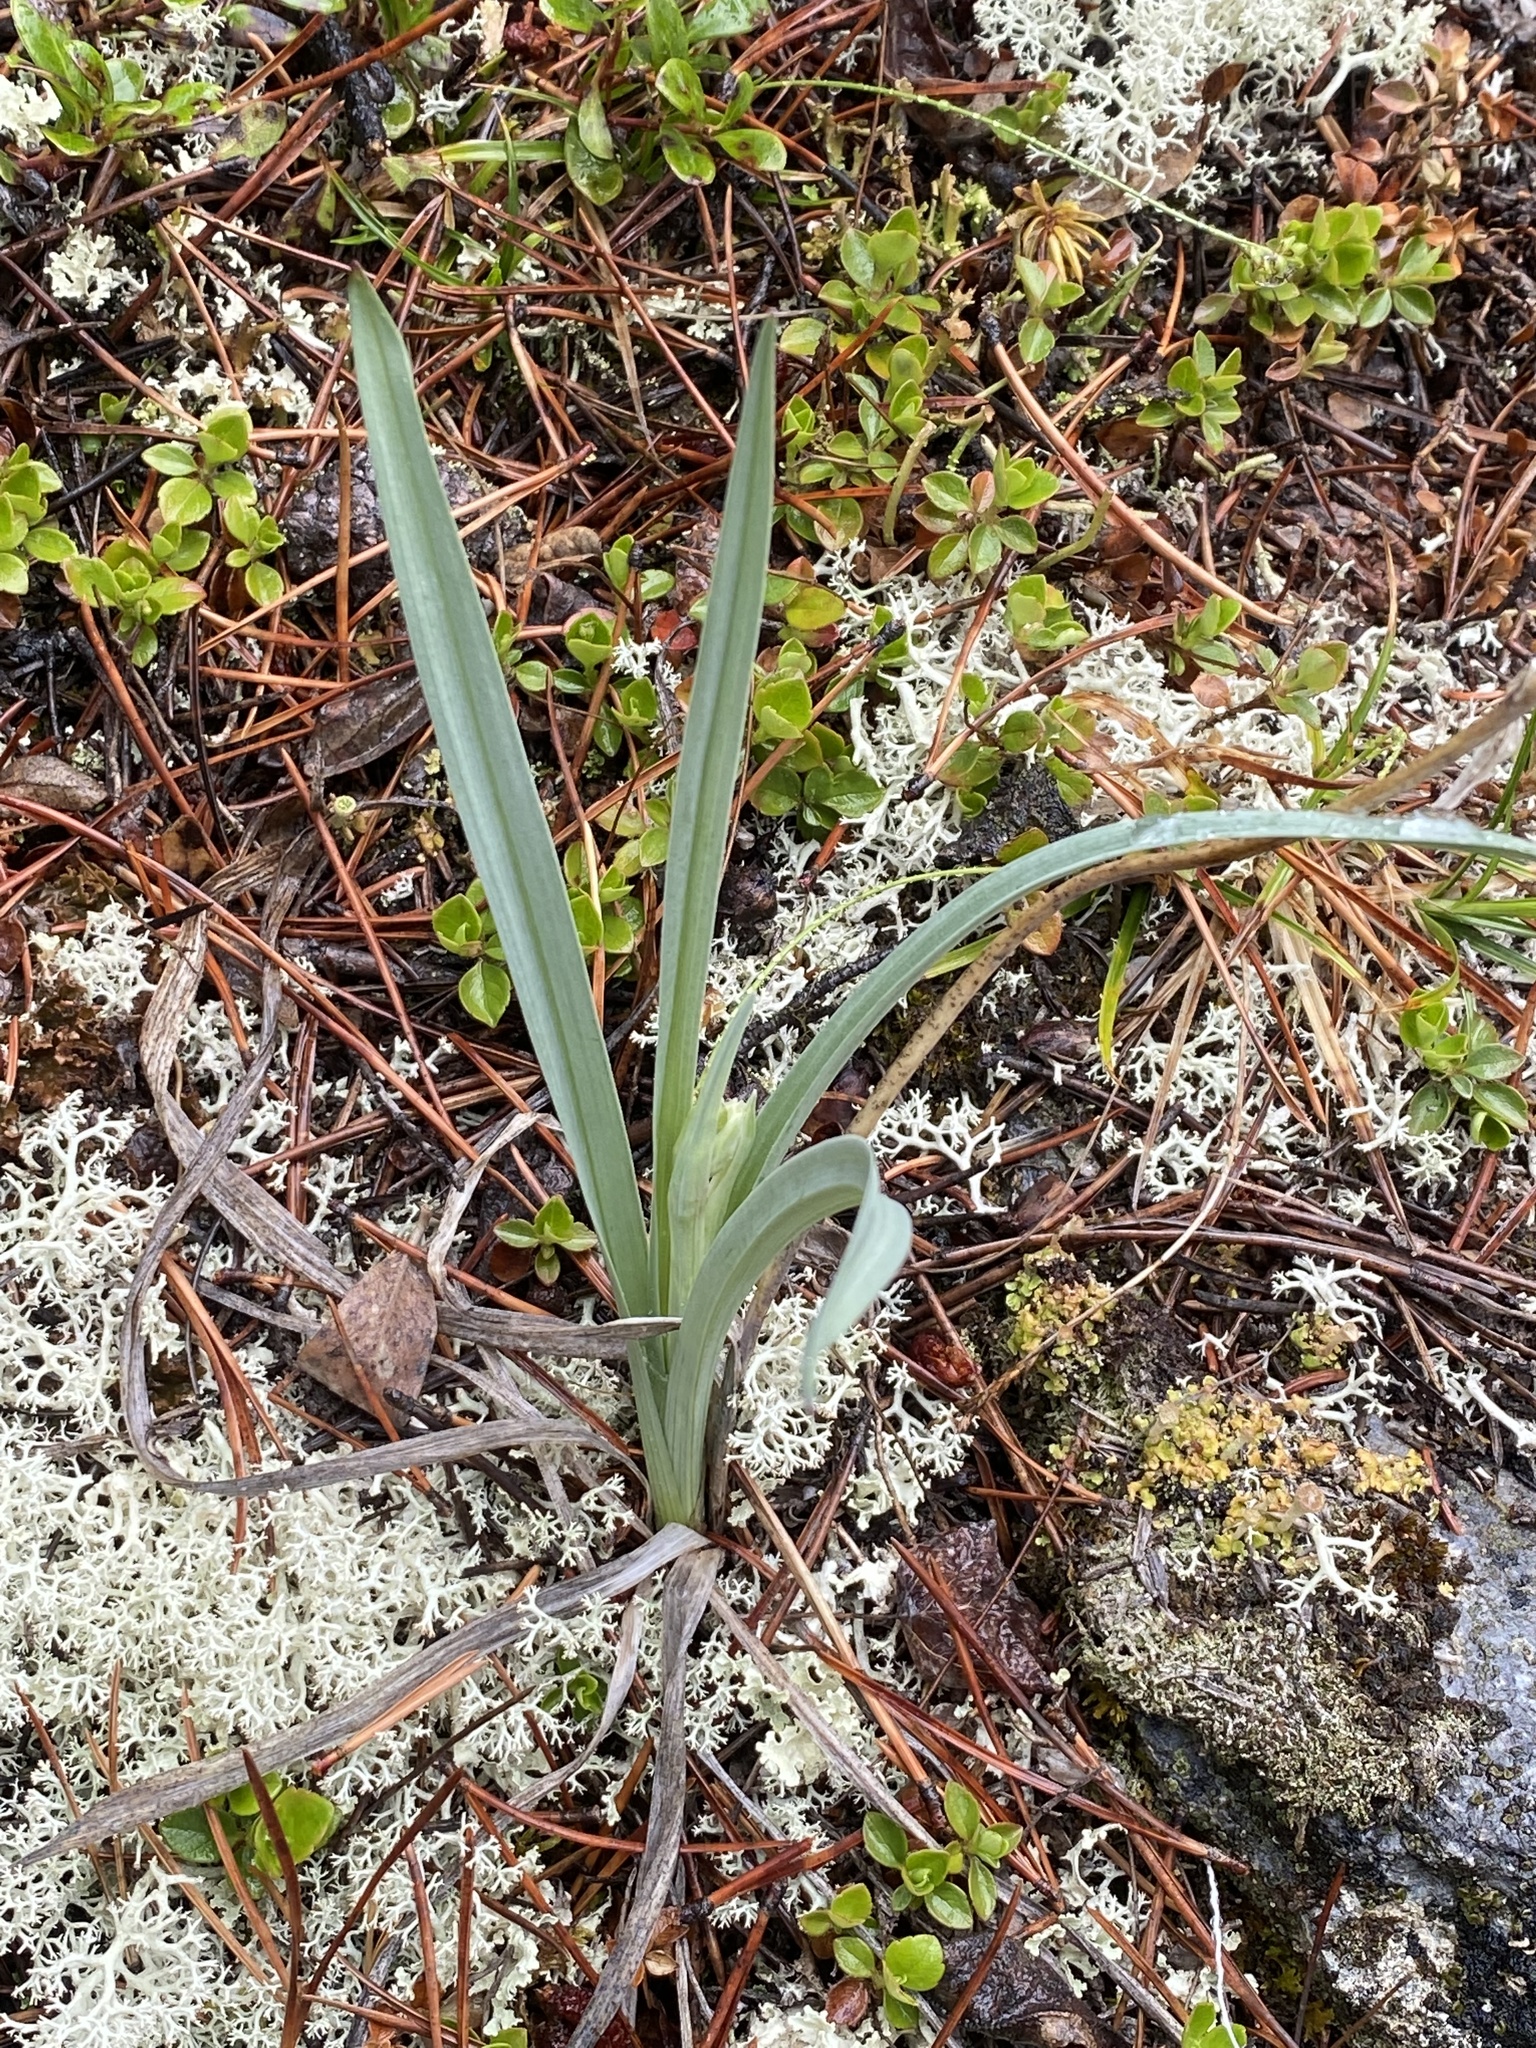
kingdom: Plantae
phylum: Tracheophyta
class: Liliopsida
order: Liliales
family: Melanthiaceae
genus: Anticlea
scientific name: Anticlea elegans
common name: Mountain death camas
